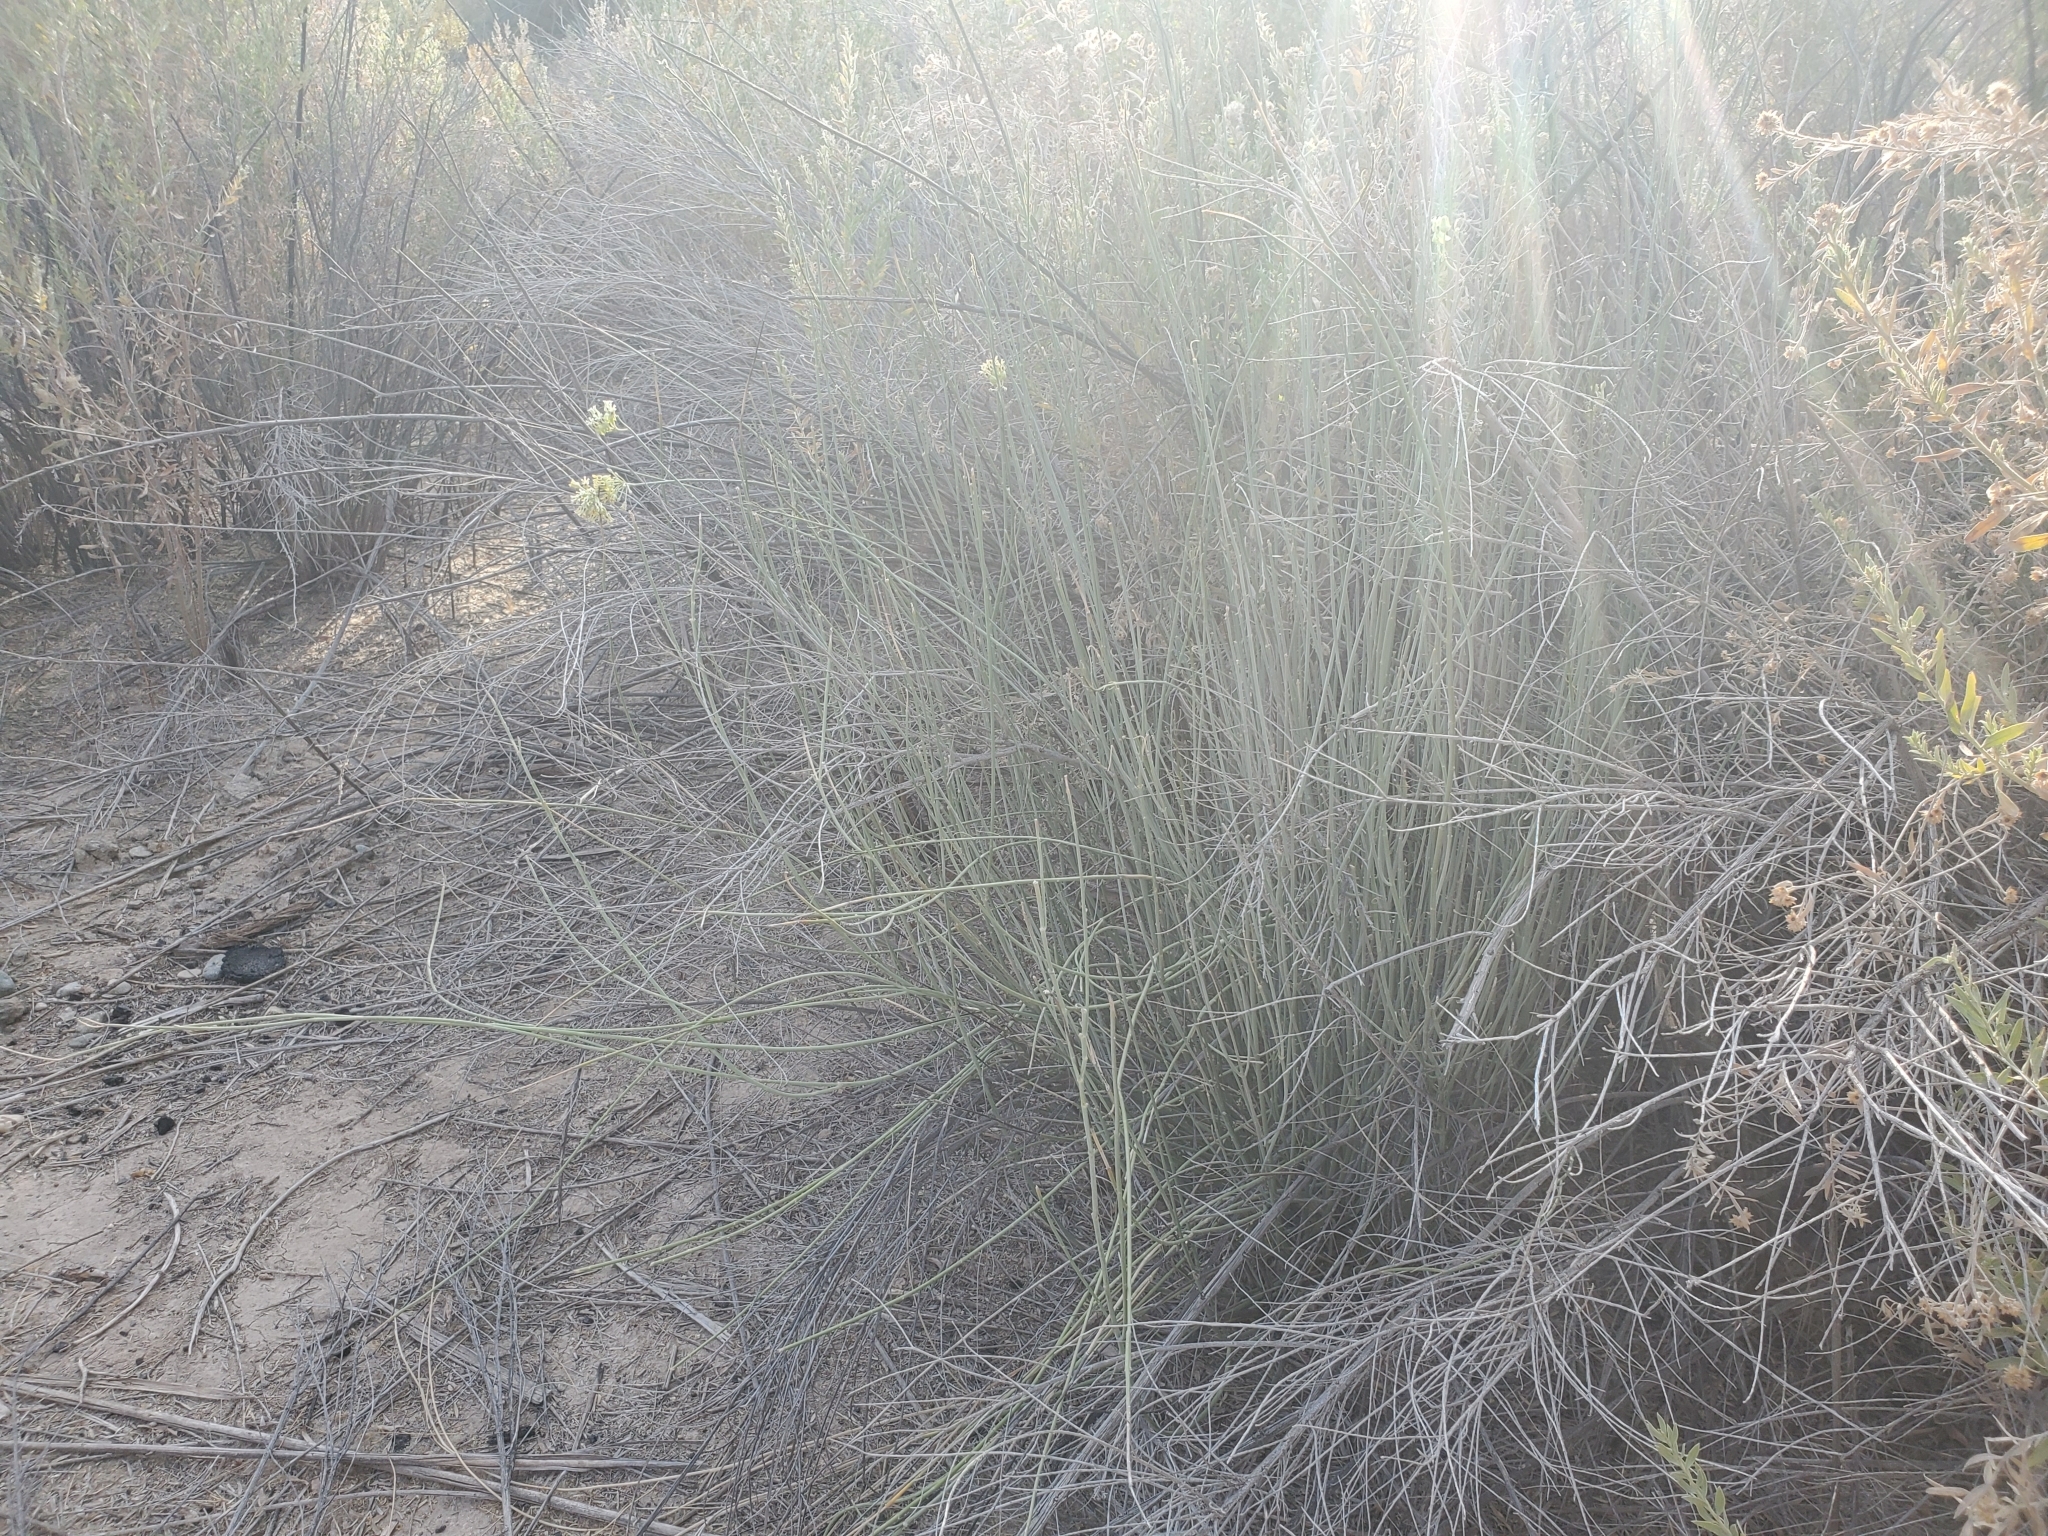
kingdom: Plantae
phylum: Tracheophyta
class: Magnoliopsida
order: Gentianales
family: Apocynaceae
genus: Asclepias
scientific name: Asclepias subulata
